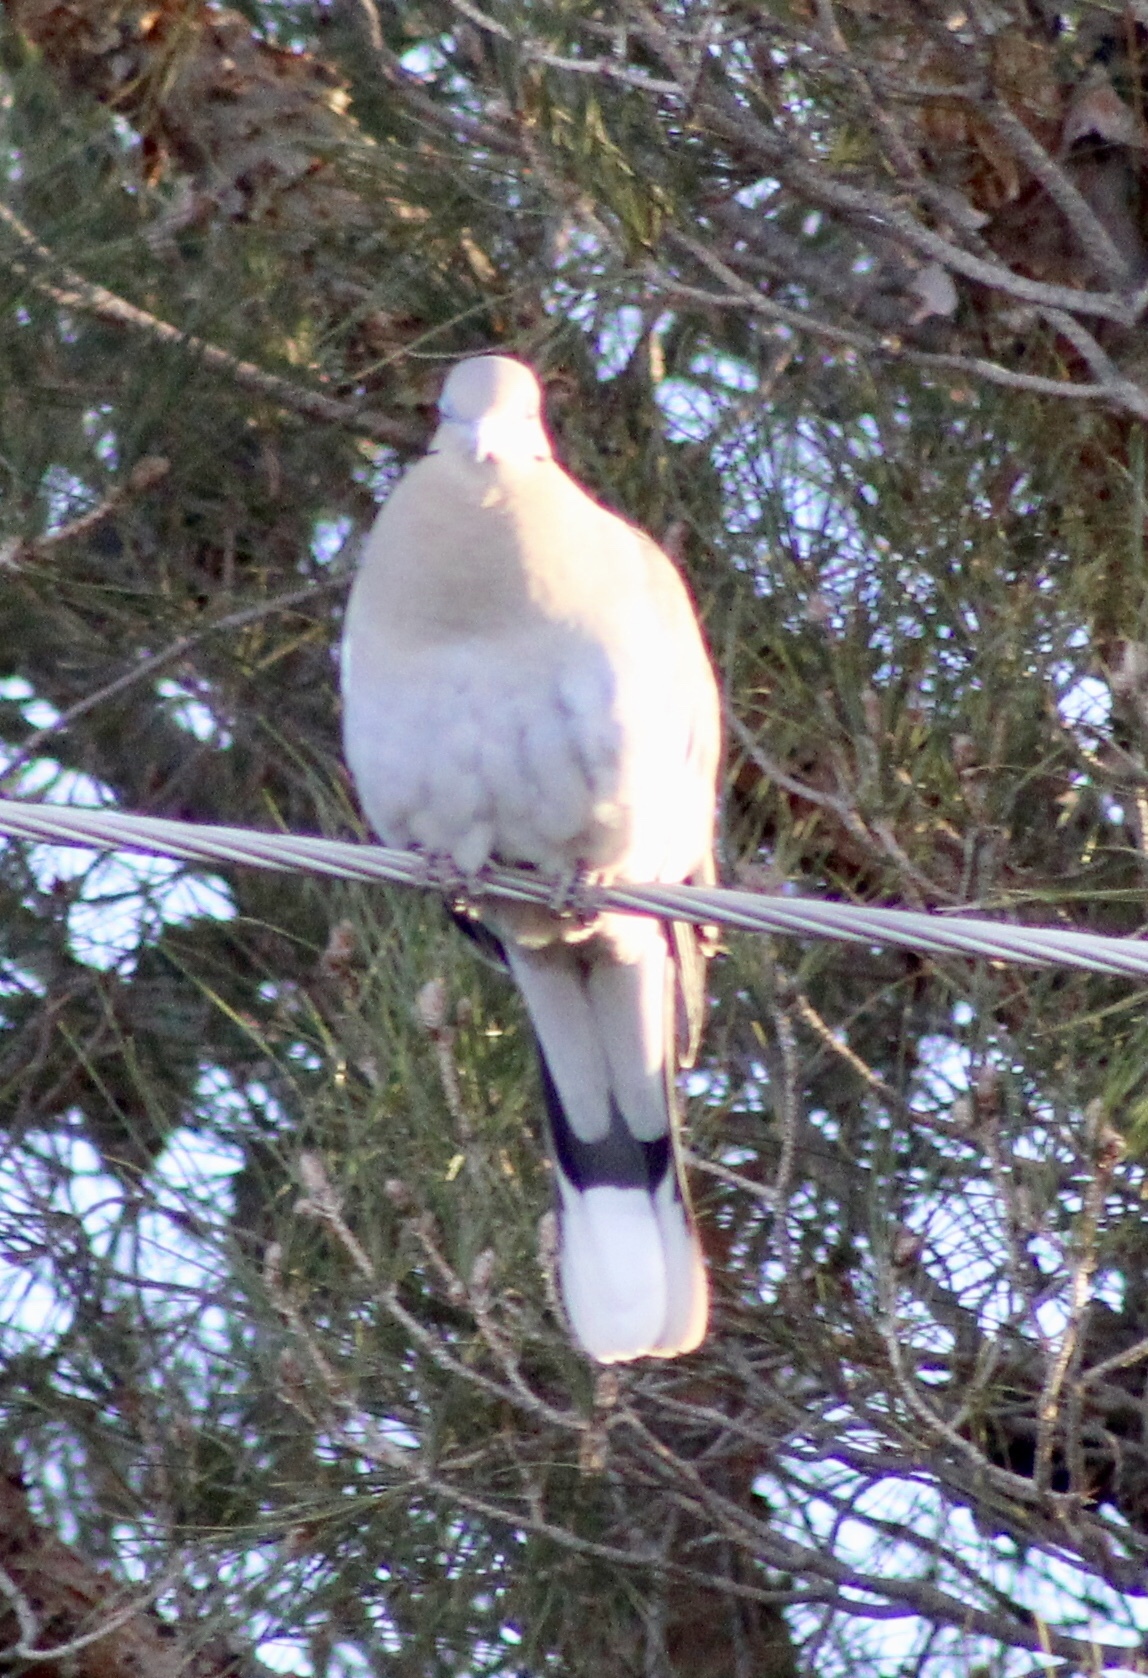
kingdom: Animalia
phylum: Chordata
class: Aves
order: Columbiformes
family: Columbidae
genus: Zenaida
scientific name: Zenaida asiatica
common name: White-winged dove
